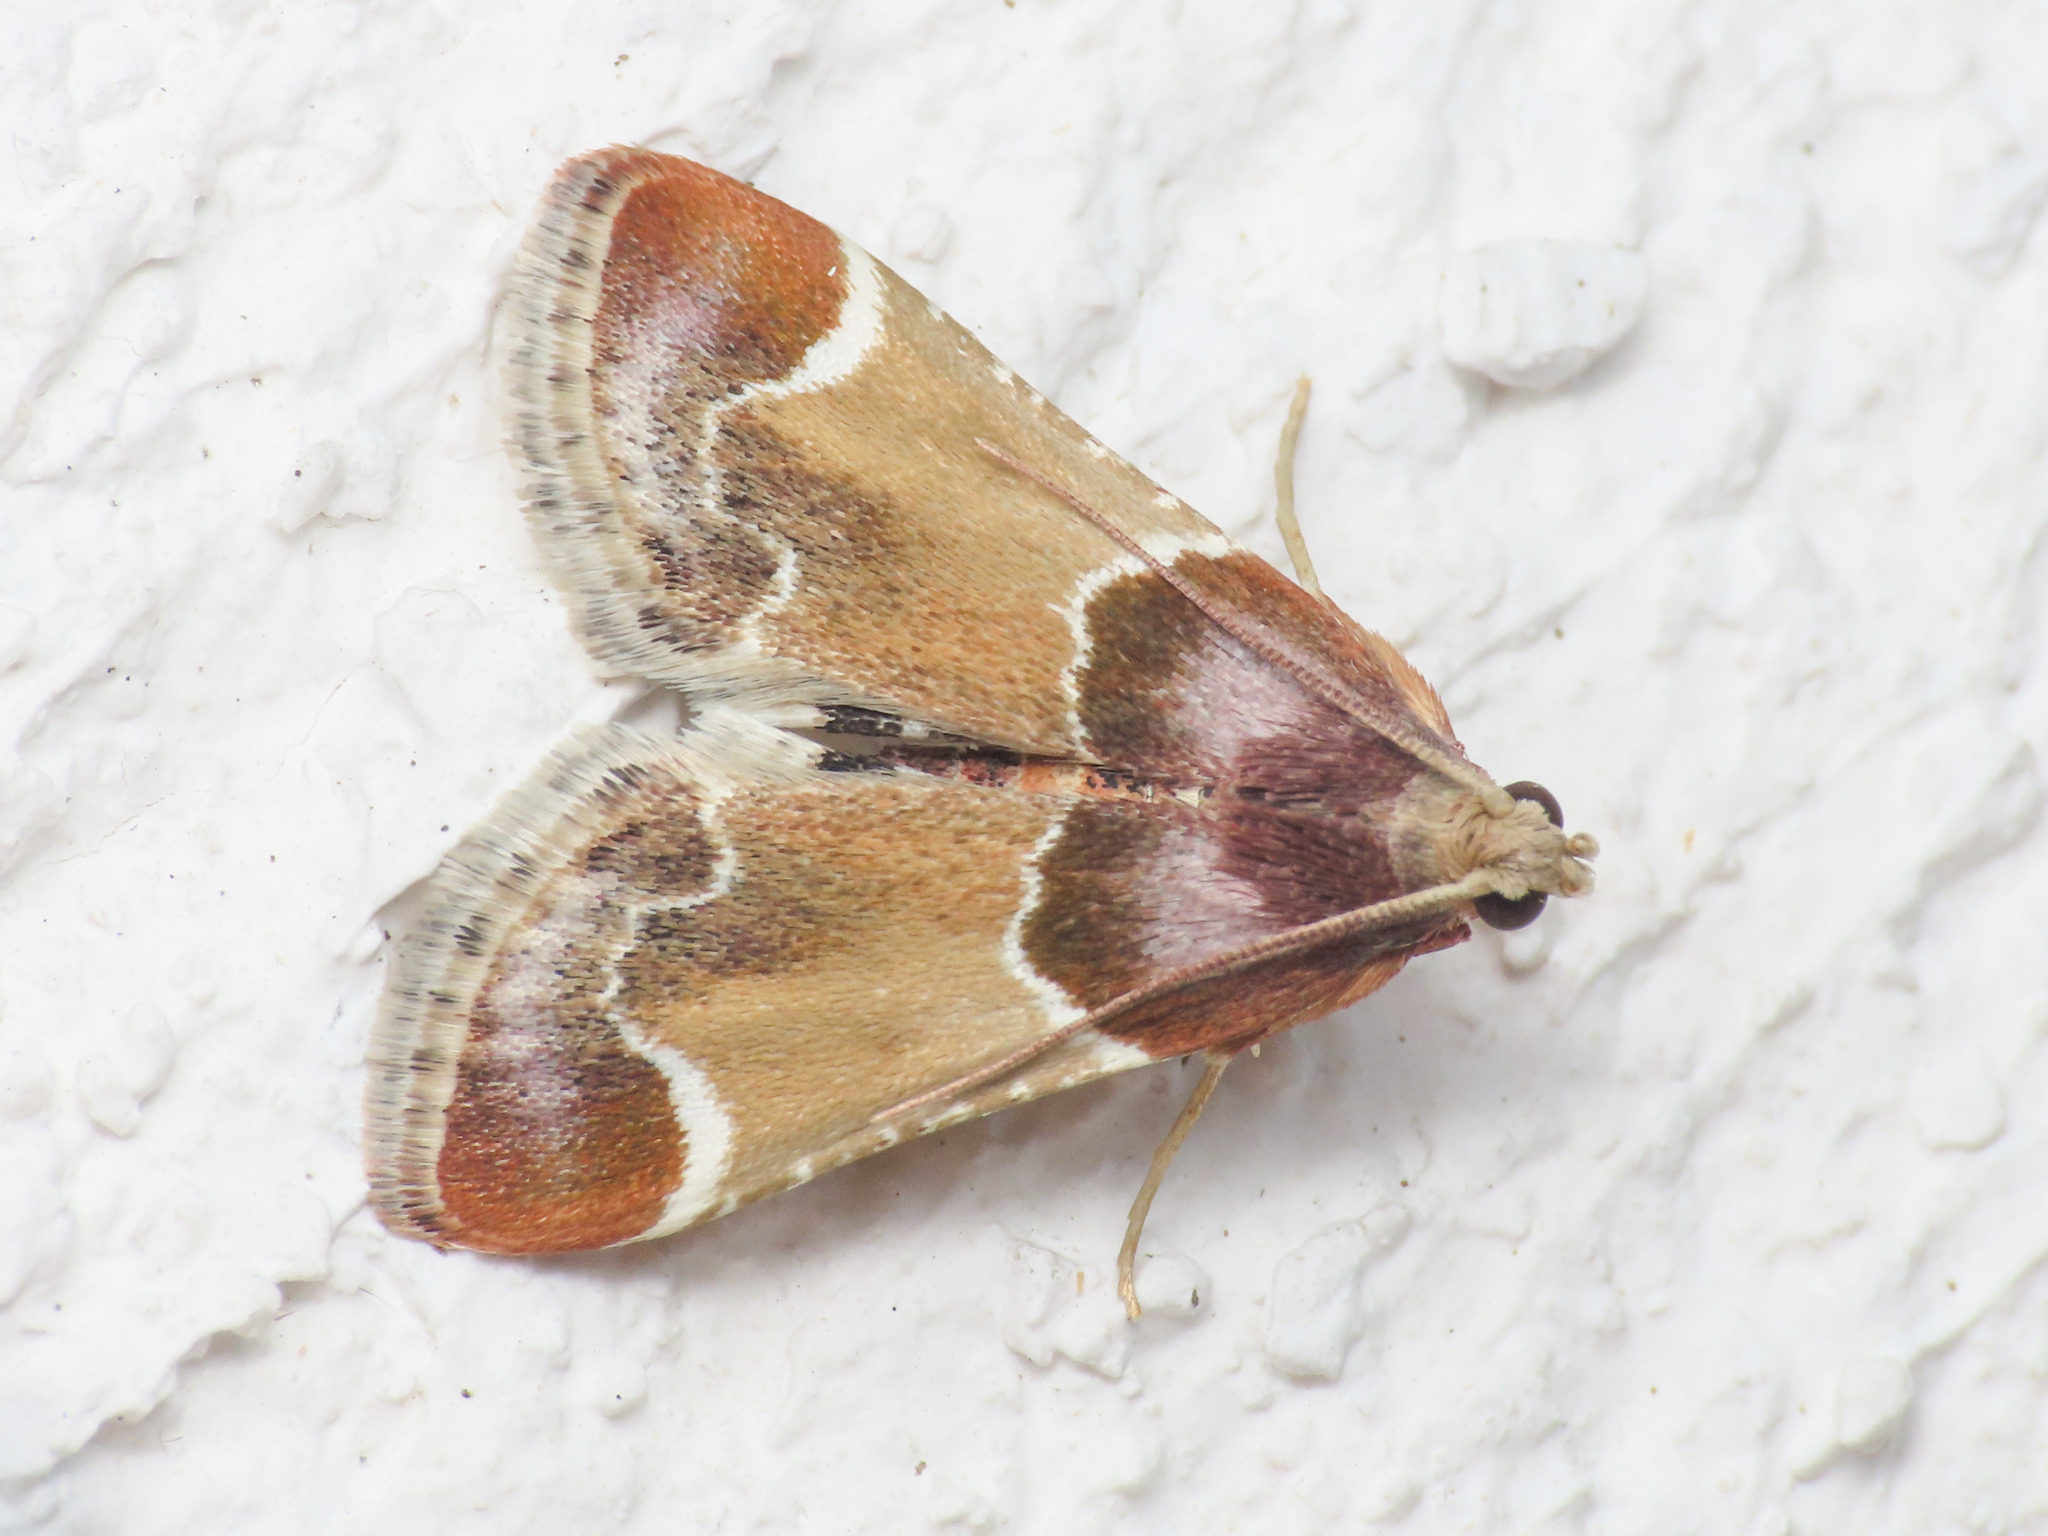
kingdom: Animalia
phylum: Arthropoda
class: Insecta
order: Lepidoptera
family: Pyralidae
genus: Pyralis
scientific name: Pyralis farinalis
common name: Meal moth
